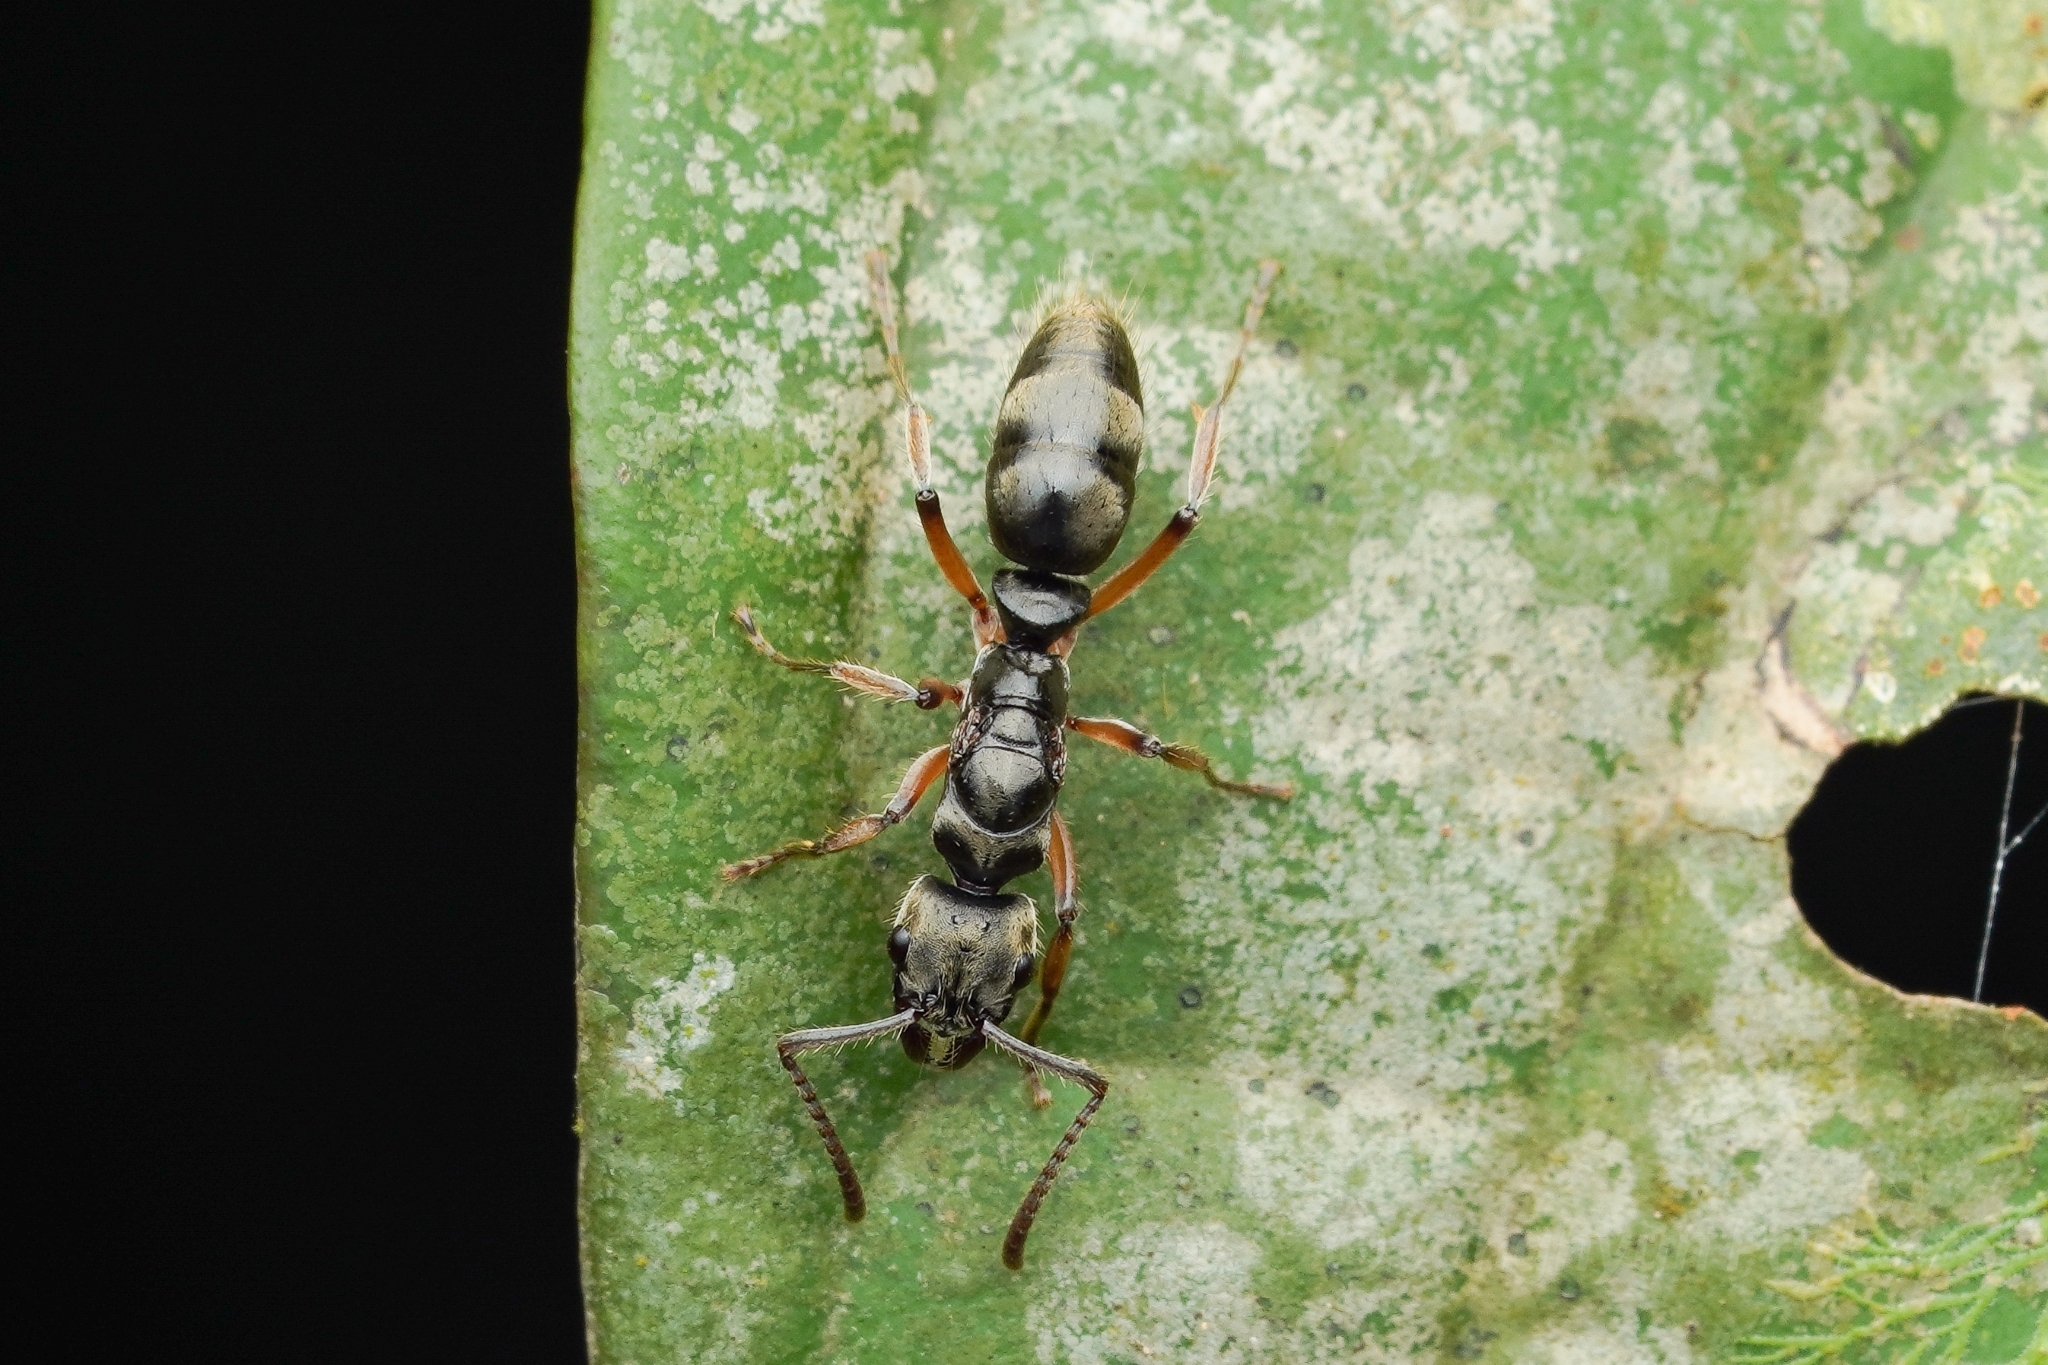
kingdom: Animalia
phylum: Arthropoda
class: Insecta
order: Hymenoptera
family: Formicidae
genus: Pachycondyla
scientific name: Pachycondyla unidentata
